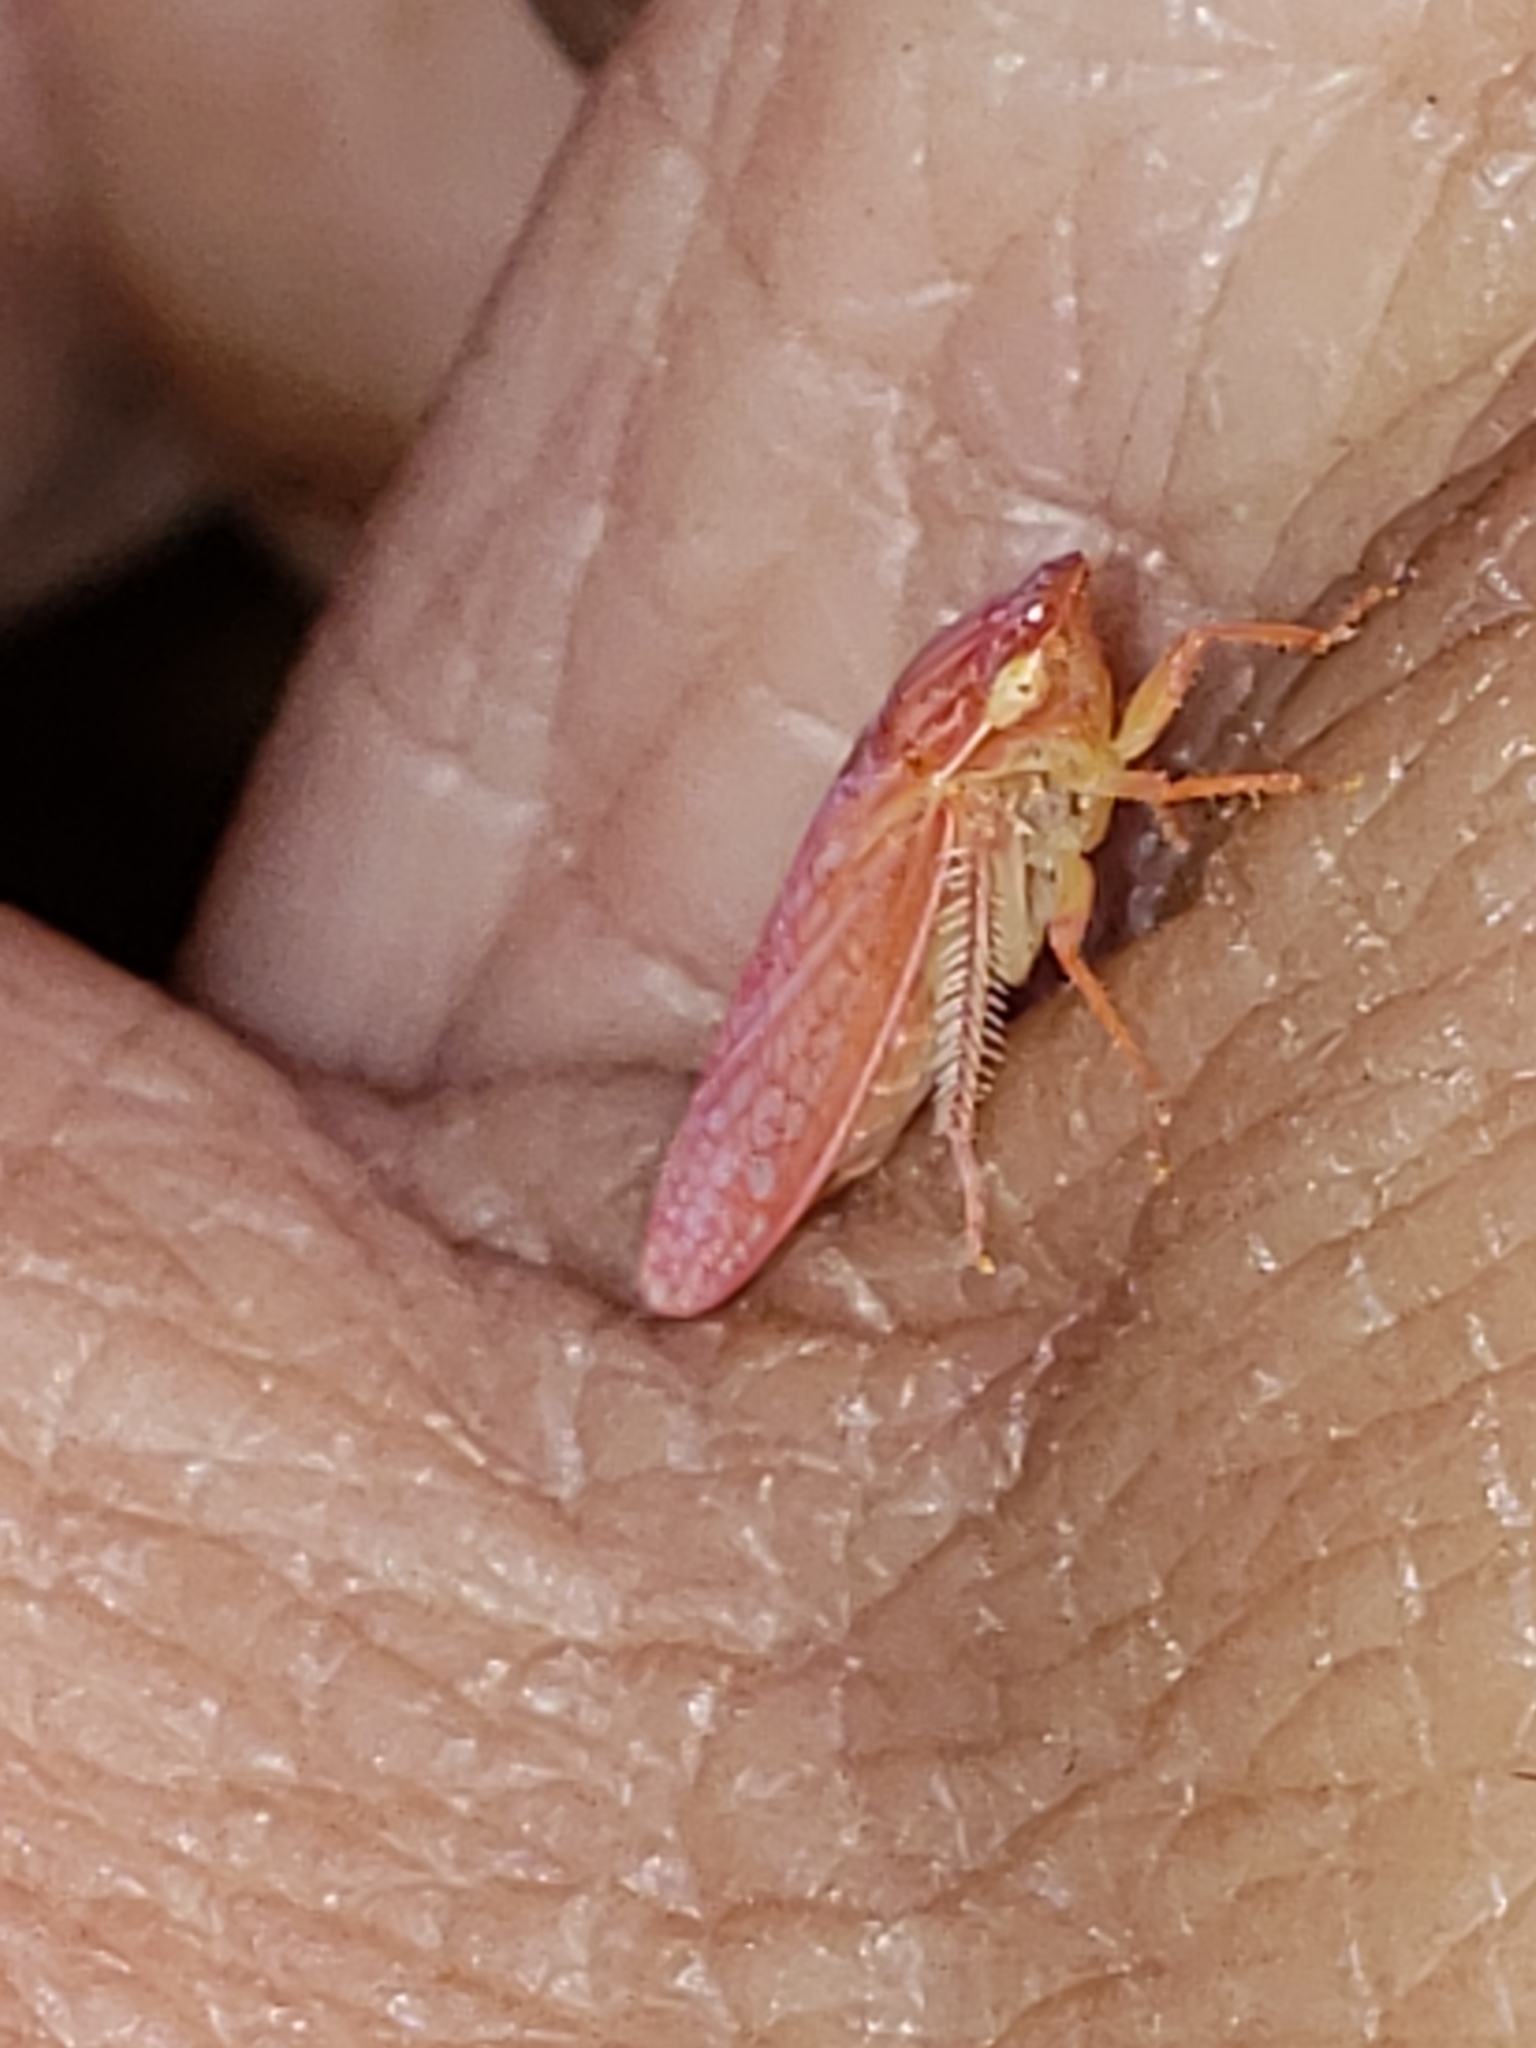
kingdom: Animalia
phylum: Arthropoda
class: Insecta
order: Hemiptera
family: Cicadellidae
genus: Gyponana
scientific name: Gyponana gladia
